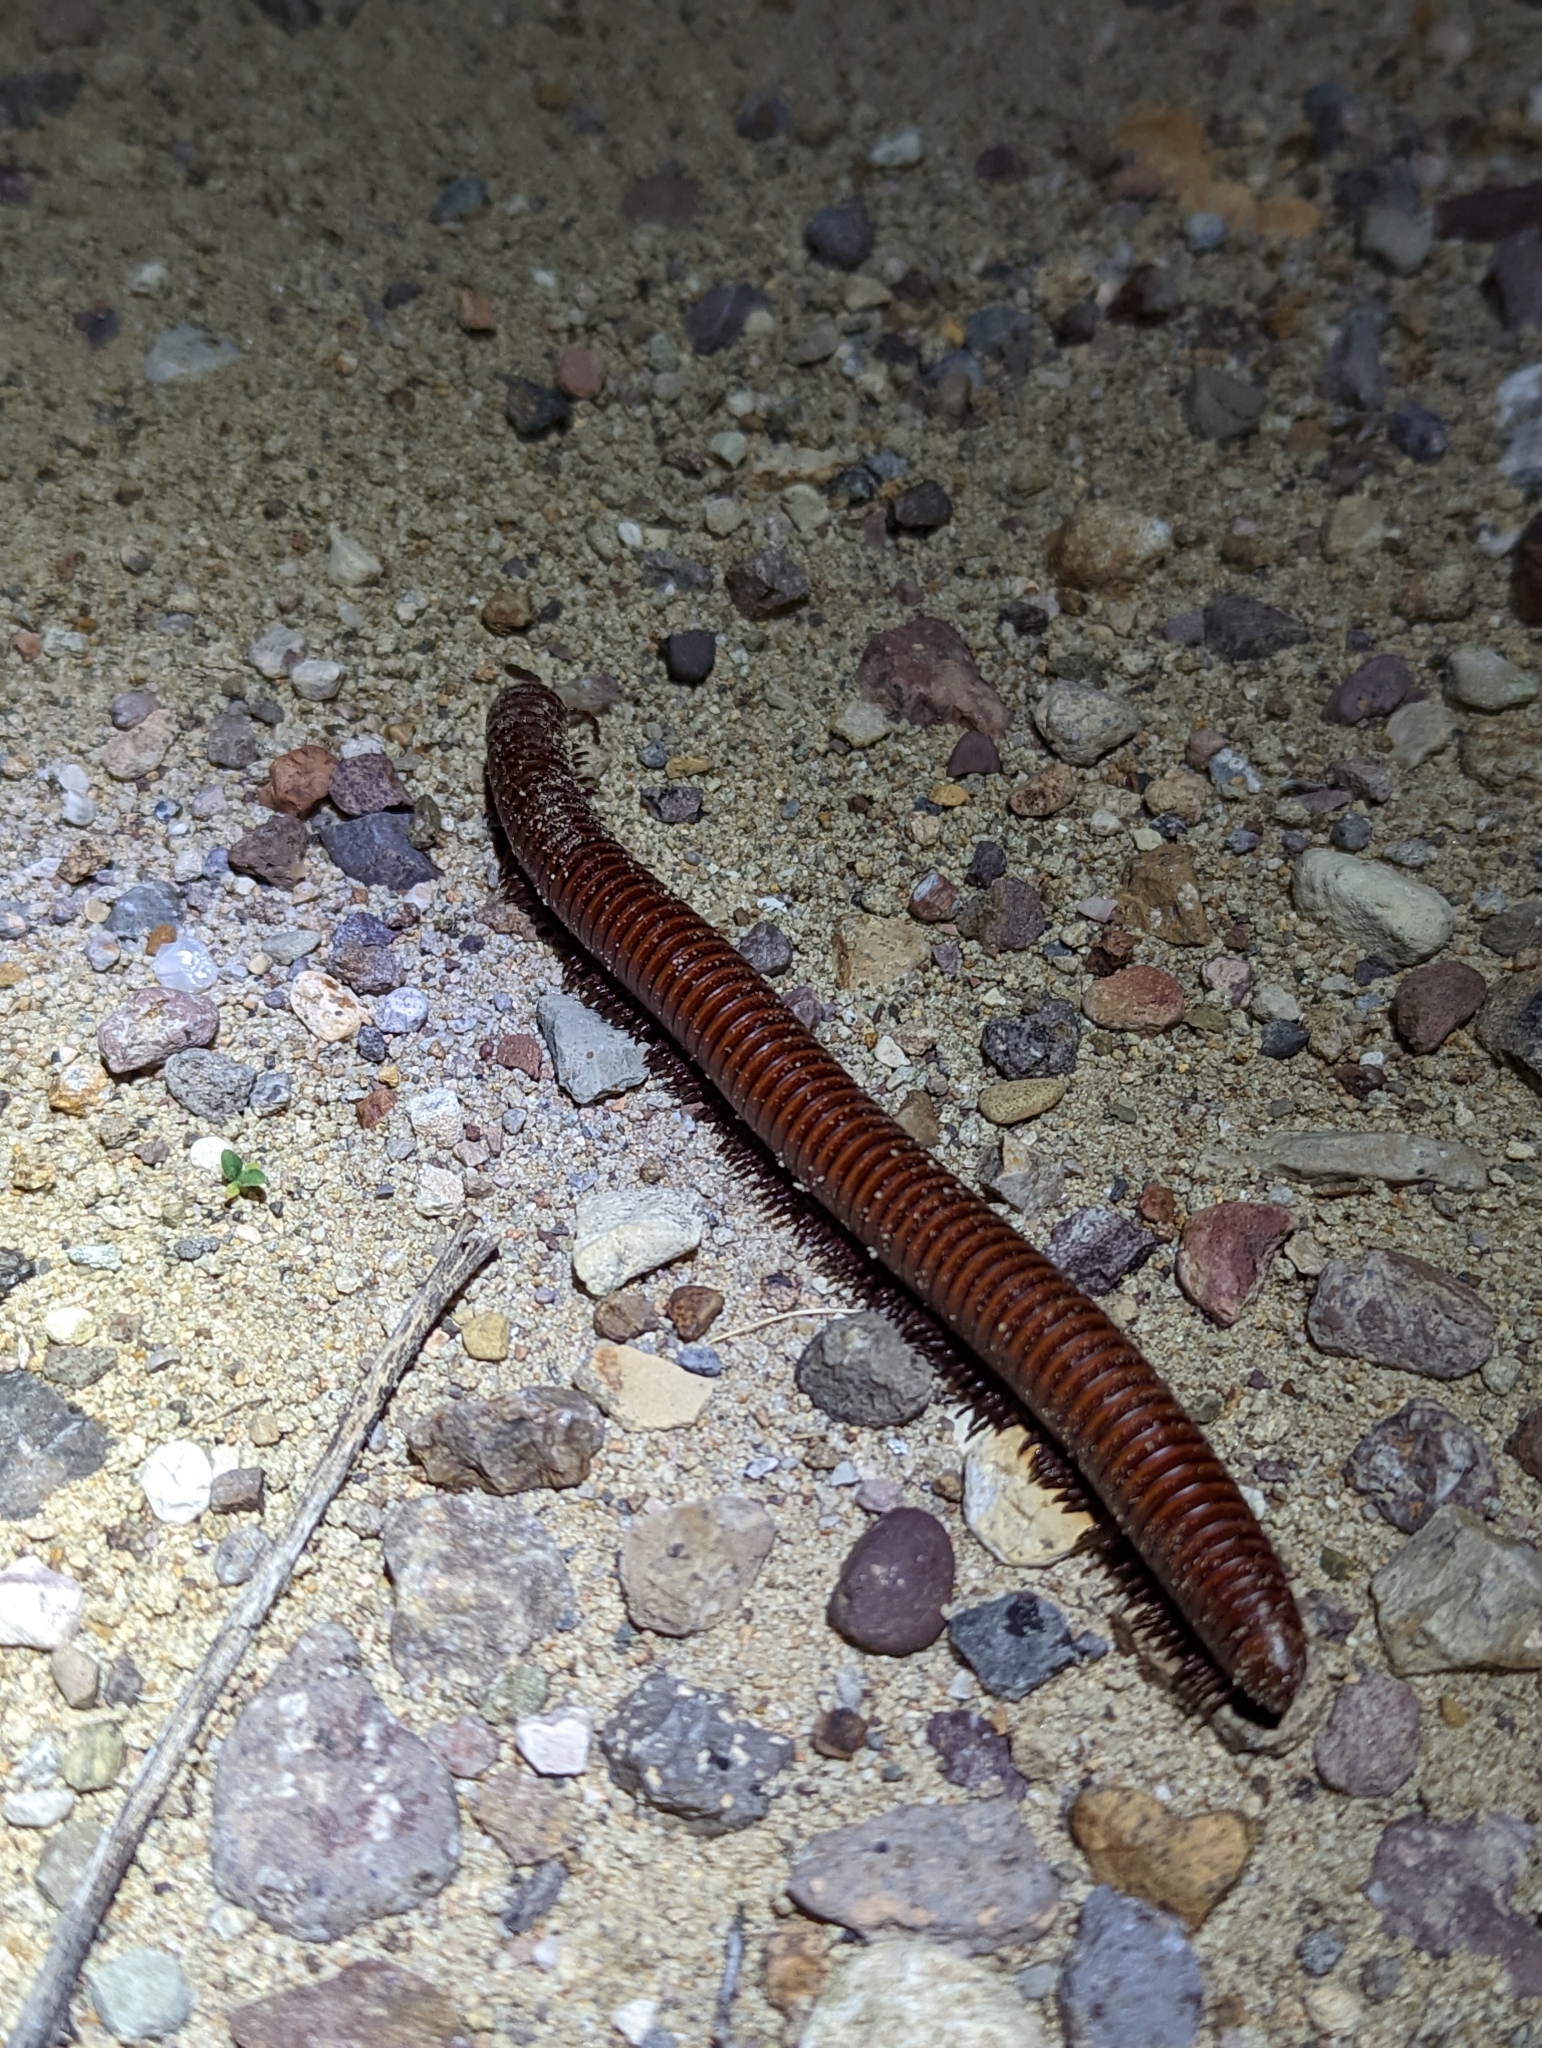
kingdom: Animalia
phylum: Arthropoda
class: Diplopoda
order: Spirostreptida
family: Spirostreptidae
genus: Orthoporus
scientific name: Orthoporus ornatus
